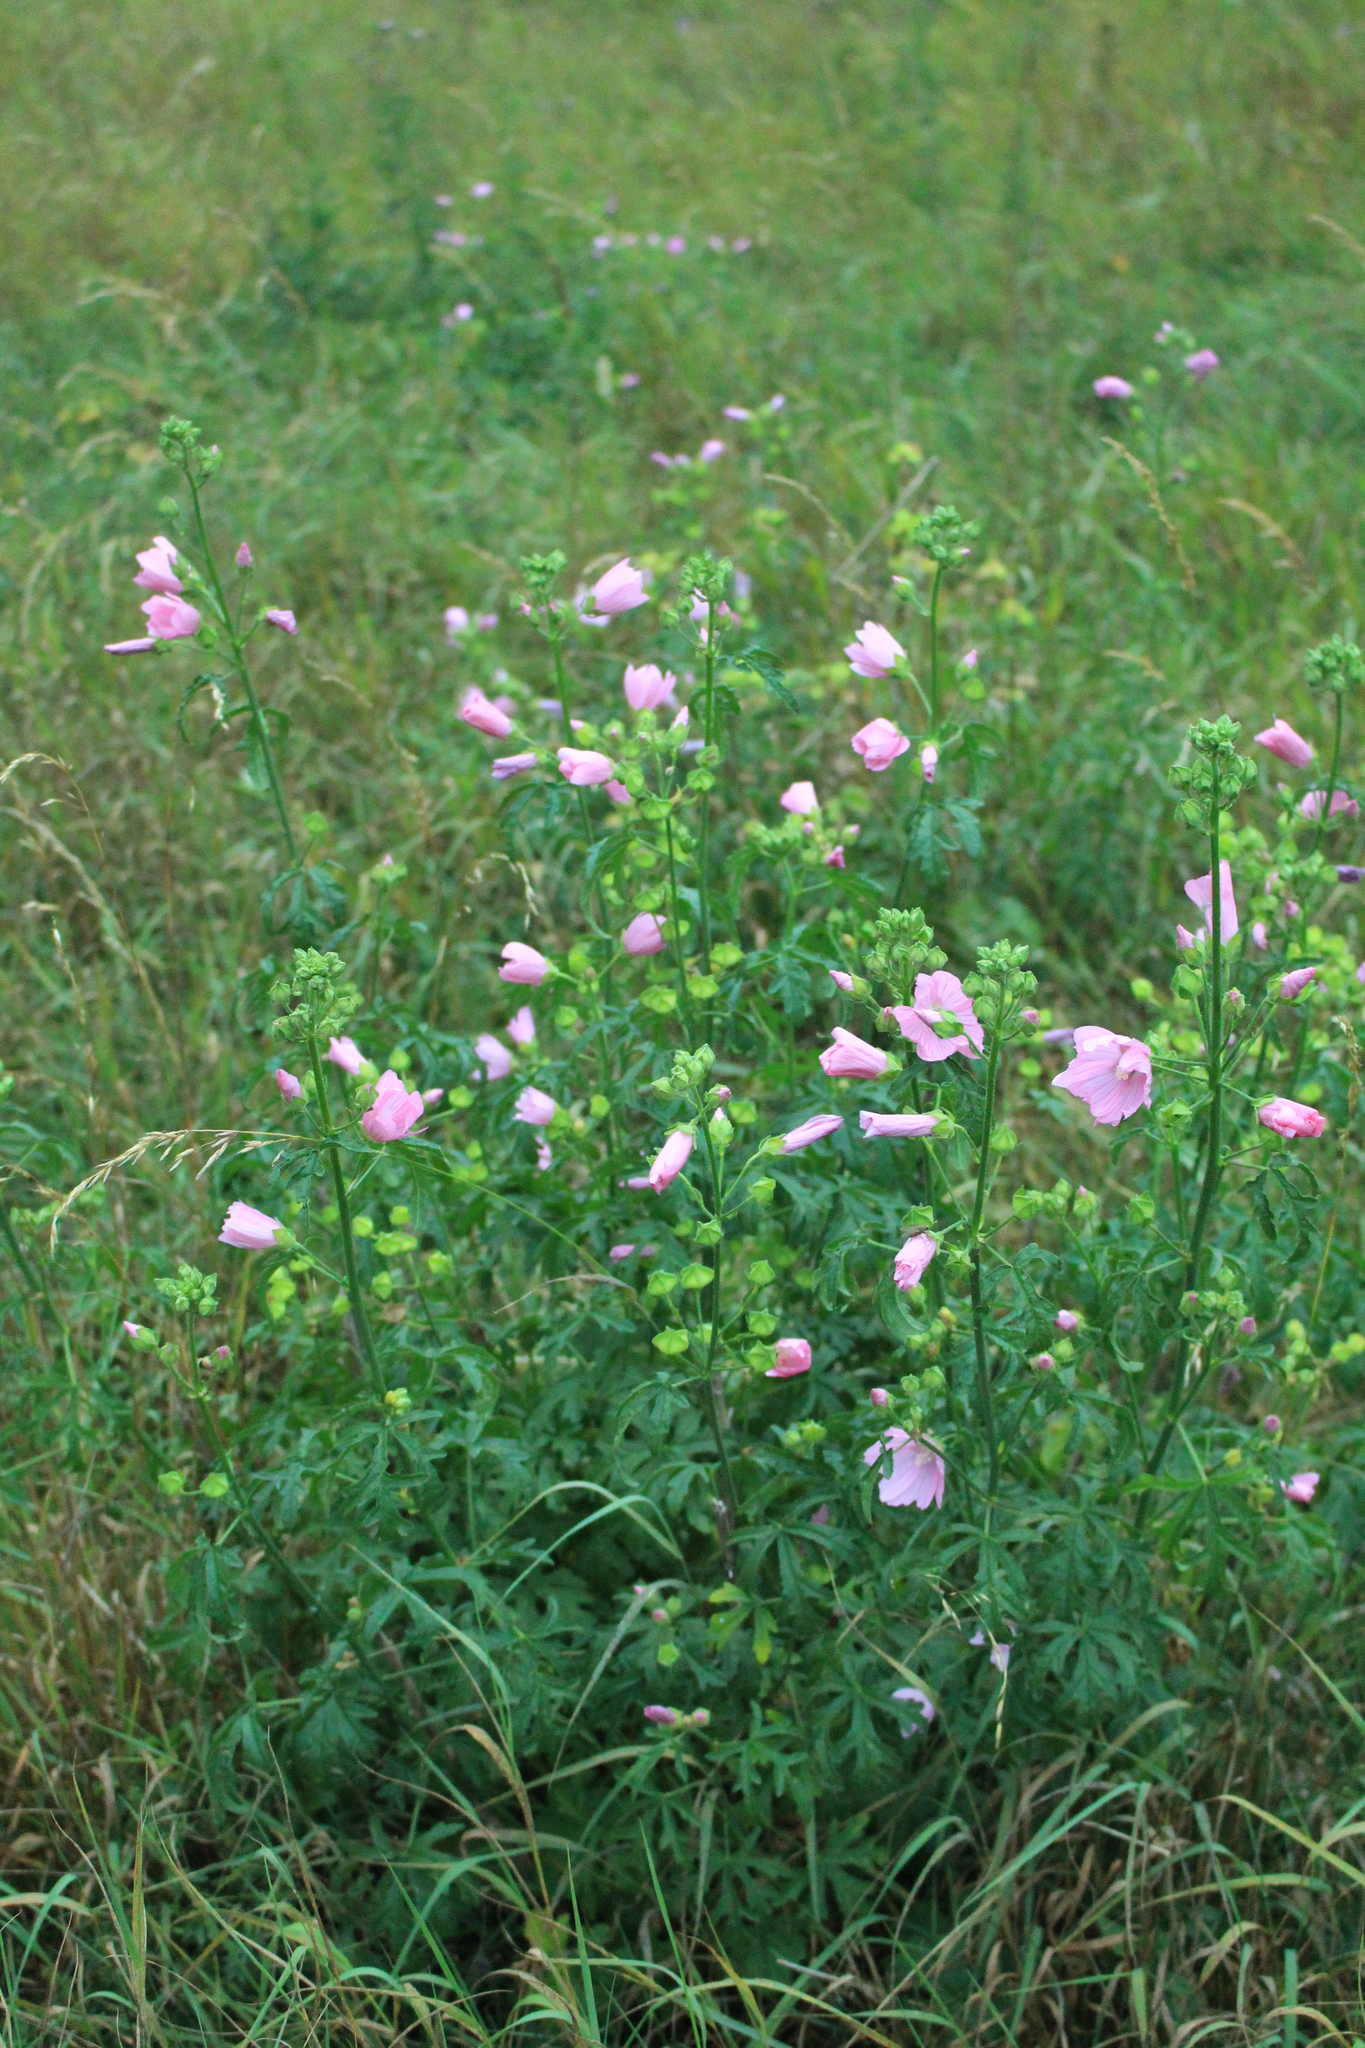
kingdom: Plantae
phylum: Tracheophyta
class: Magnoliopsida
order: Malvales
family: Malvaceae
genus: Malva
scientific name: Malva alcea
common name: Greater musk-mallow
